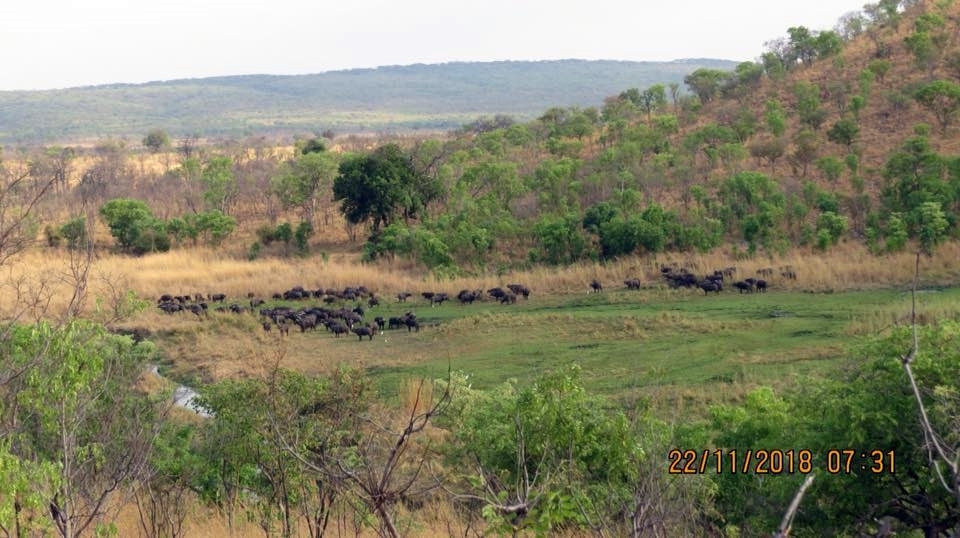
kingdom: Animalia
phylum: Chordata
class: Mammalia
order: Artiodactyla
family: Bovidae
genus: Syncerus
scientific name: Syncerus caffer
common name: African buffalo
